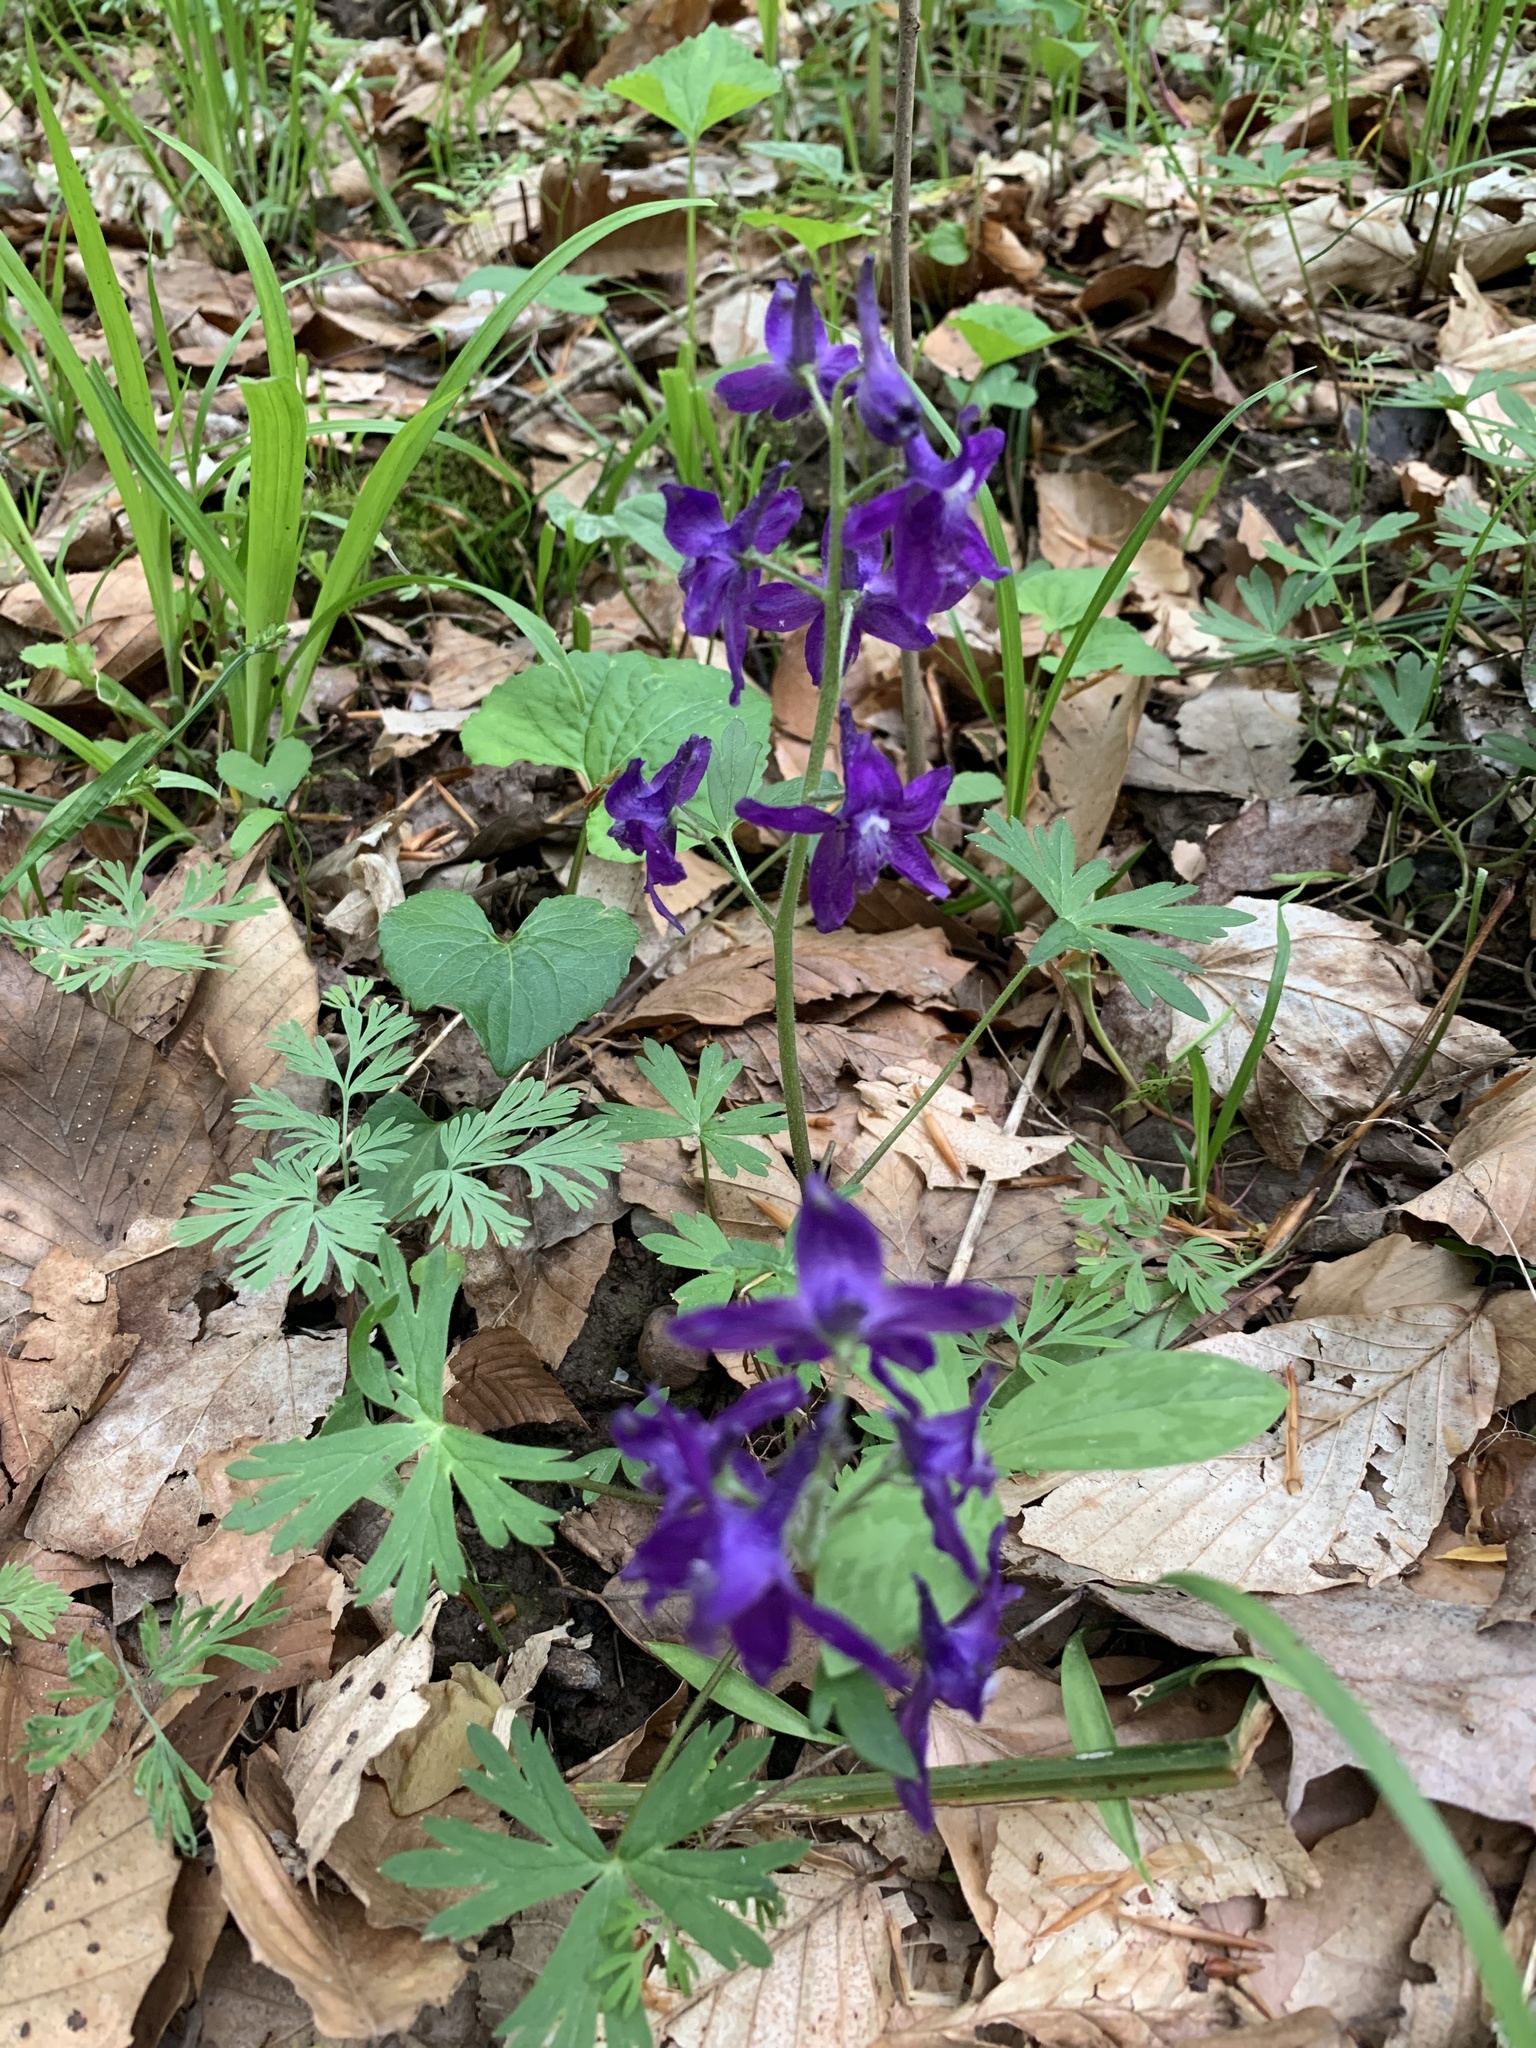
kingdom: Plantae
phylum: Tracheophyta
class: Magnoliopsida
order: Ranunculales
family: Ranunculaceae
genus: Delphinium
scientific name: Delphinium tricorne
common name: Dwarf larkspur
